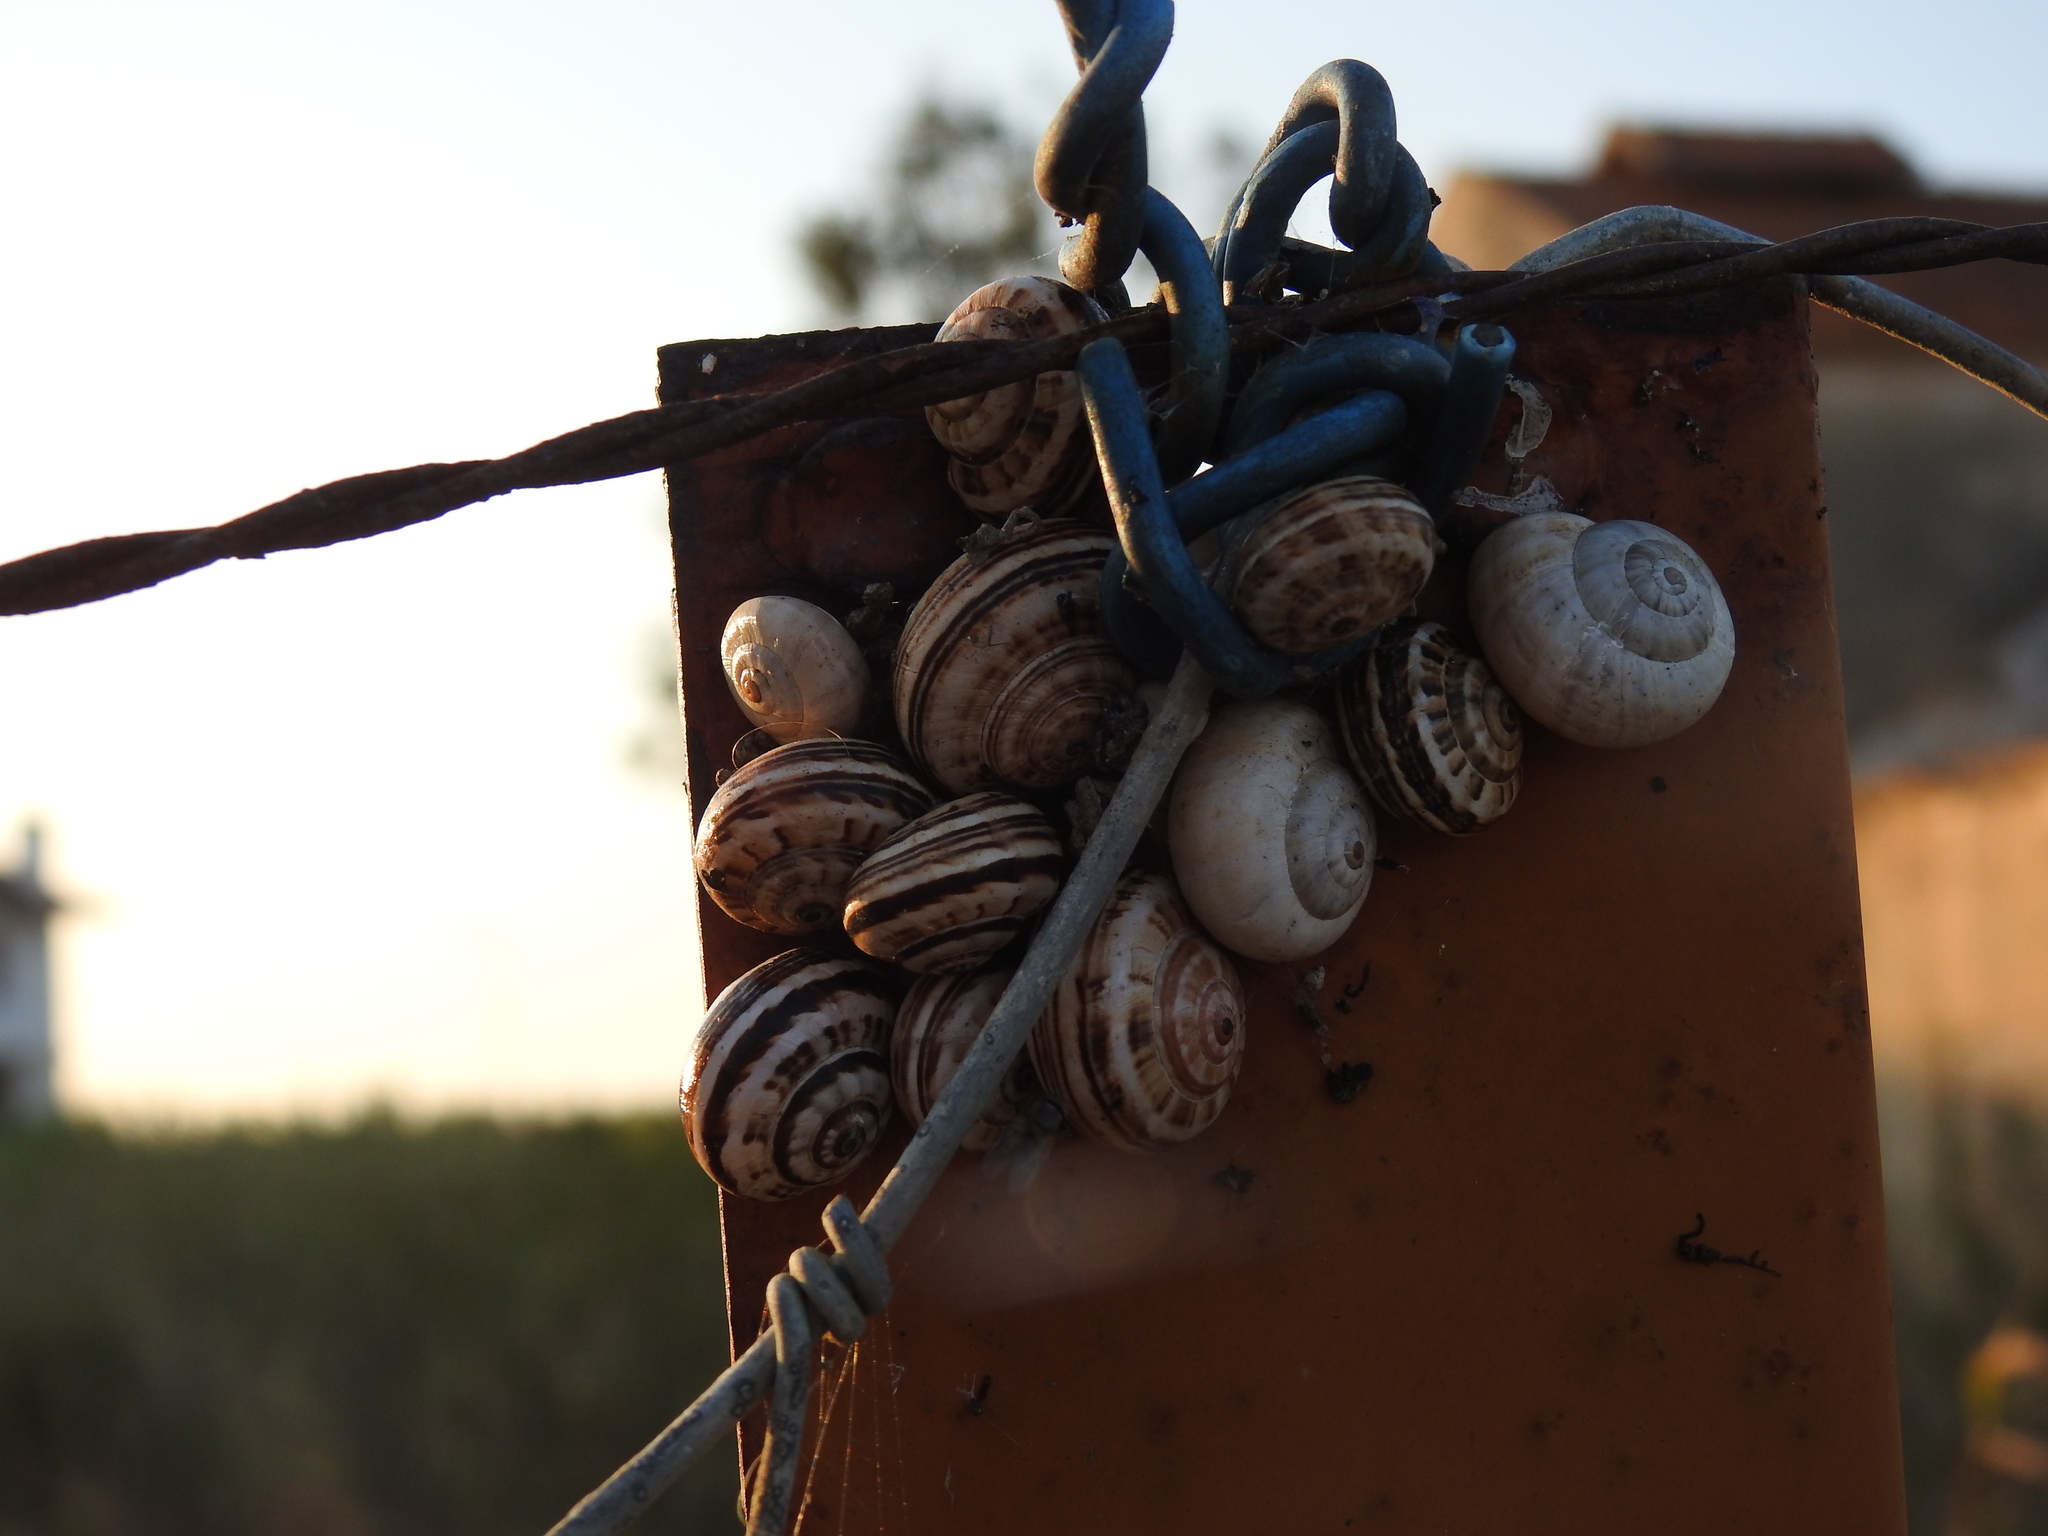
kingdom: Animalia
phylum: Mollusca
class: Gastropoda
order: Stylommatophora
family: Helicidae
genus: Theba
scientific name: Theba pisana
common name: White snail
